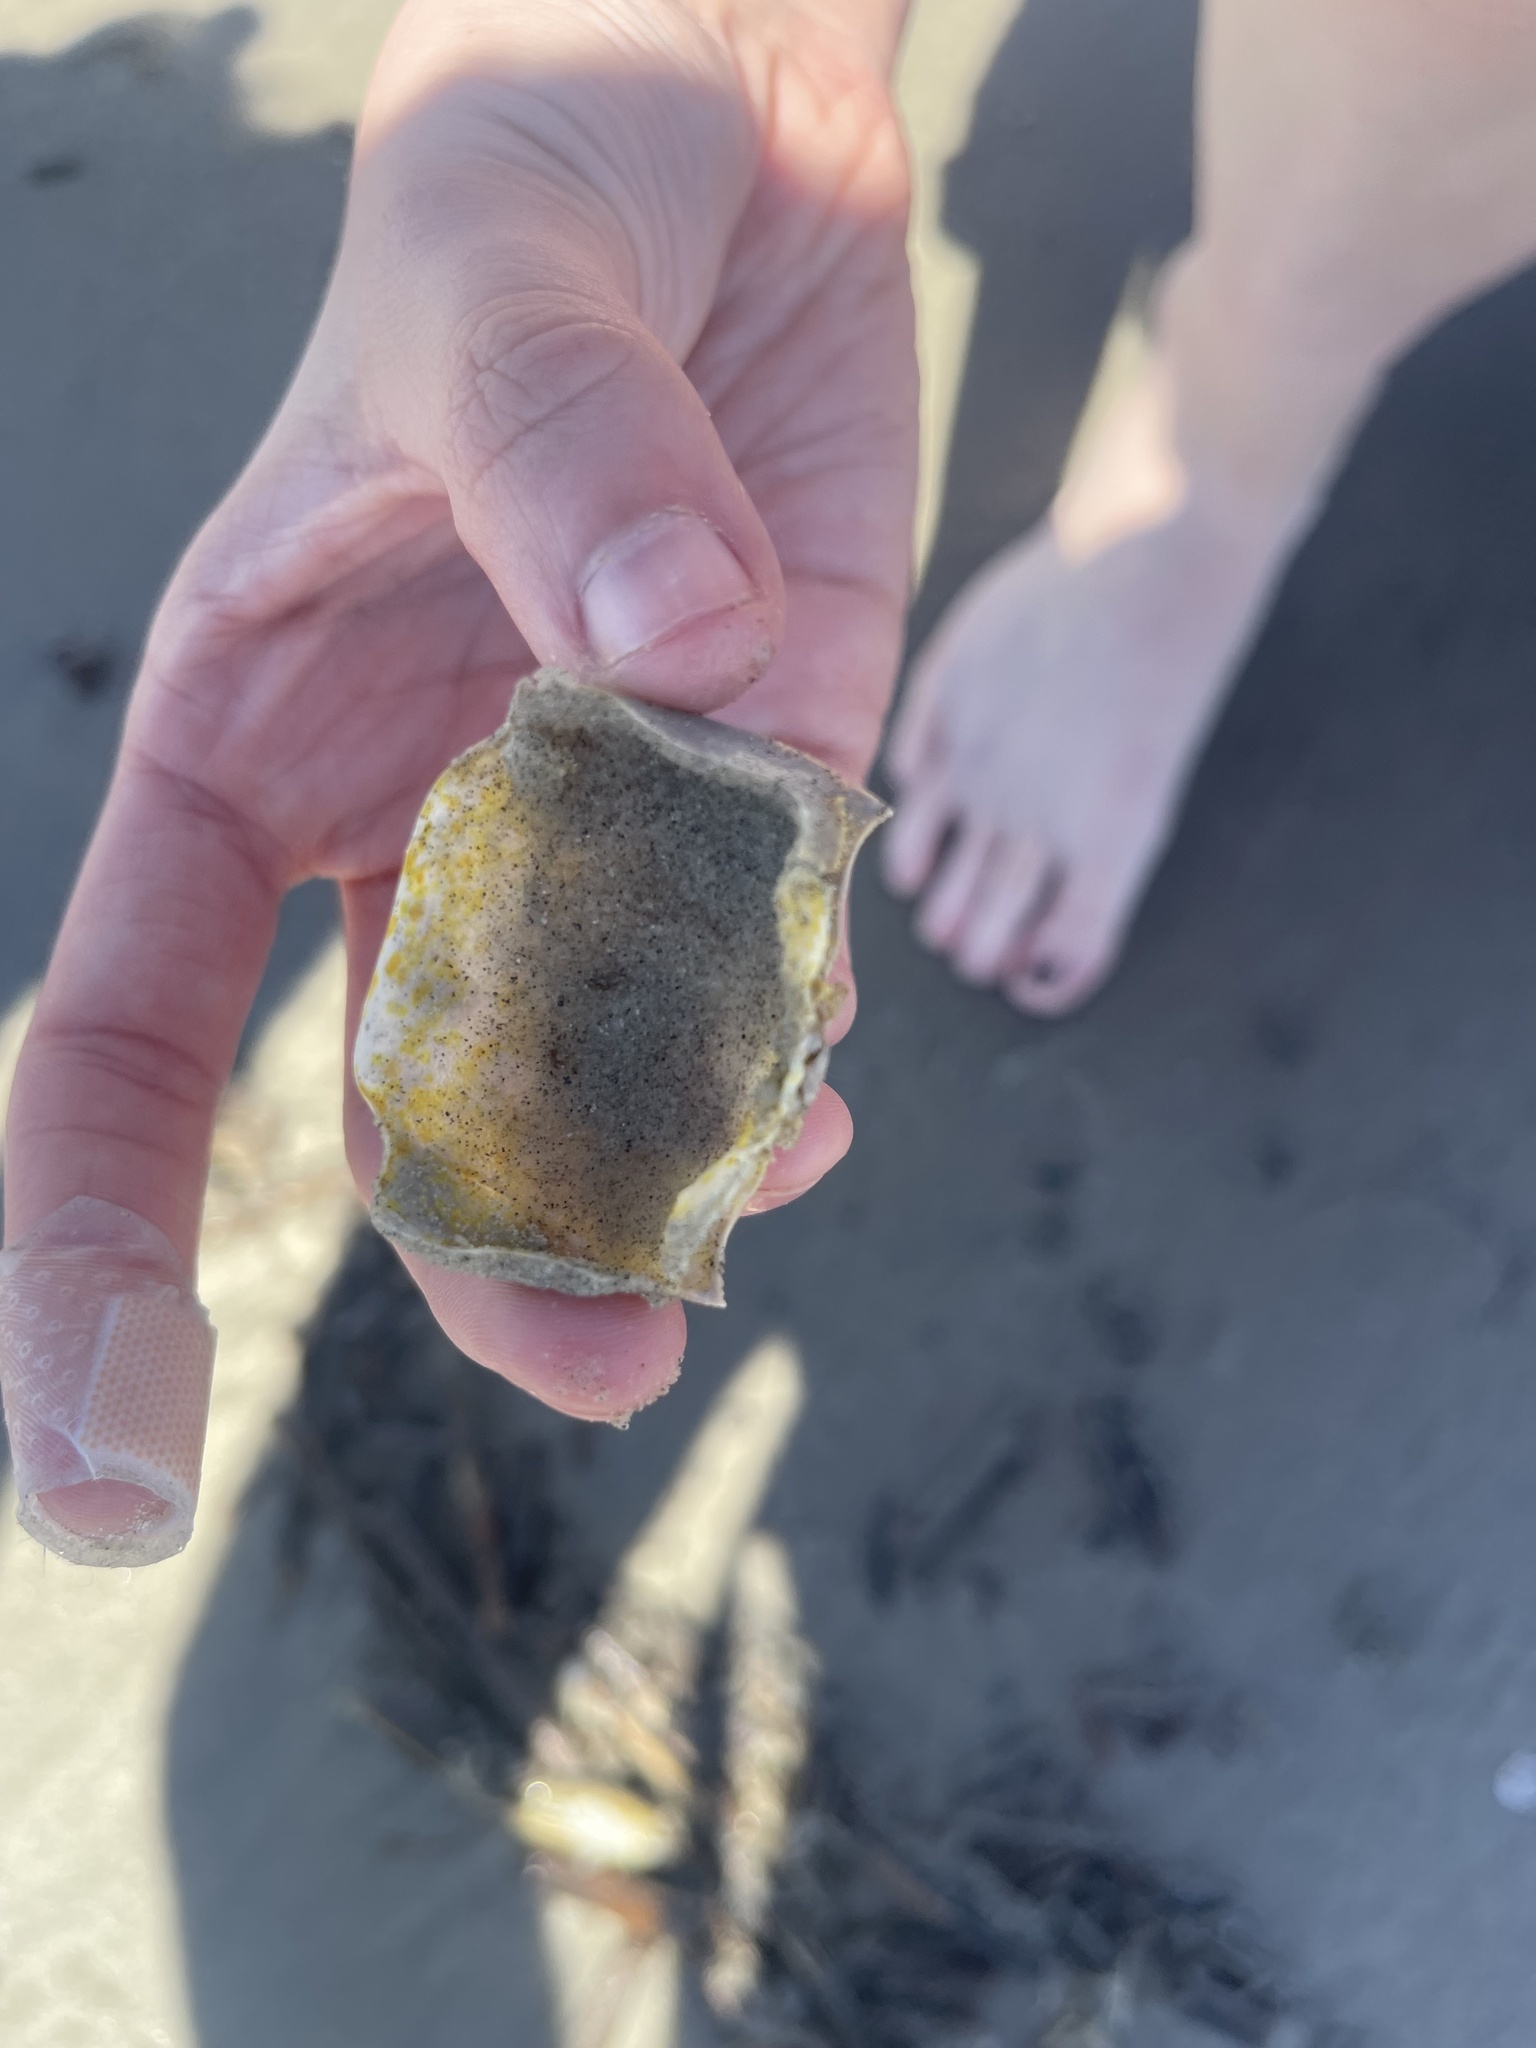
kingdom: Animalia
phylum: Arthropoda
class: Malacostraca
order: Decapoda
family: Ocypodidae
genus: Ocypode
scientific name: Ocypode quadrata
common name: Ghost crab
